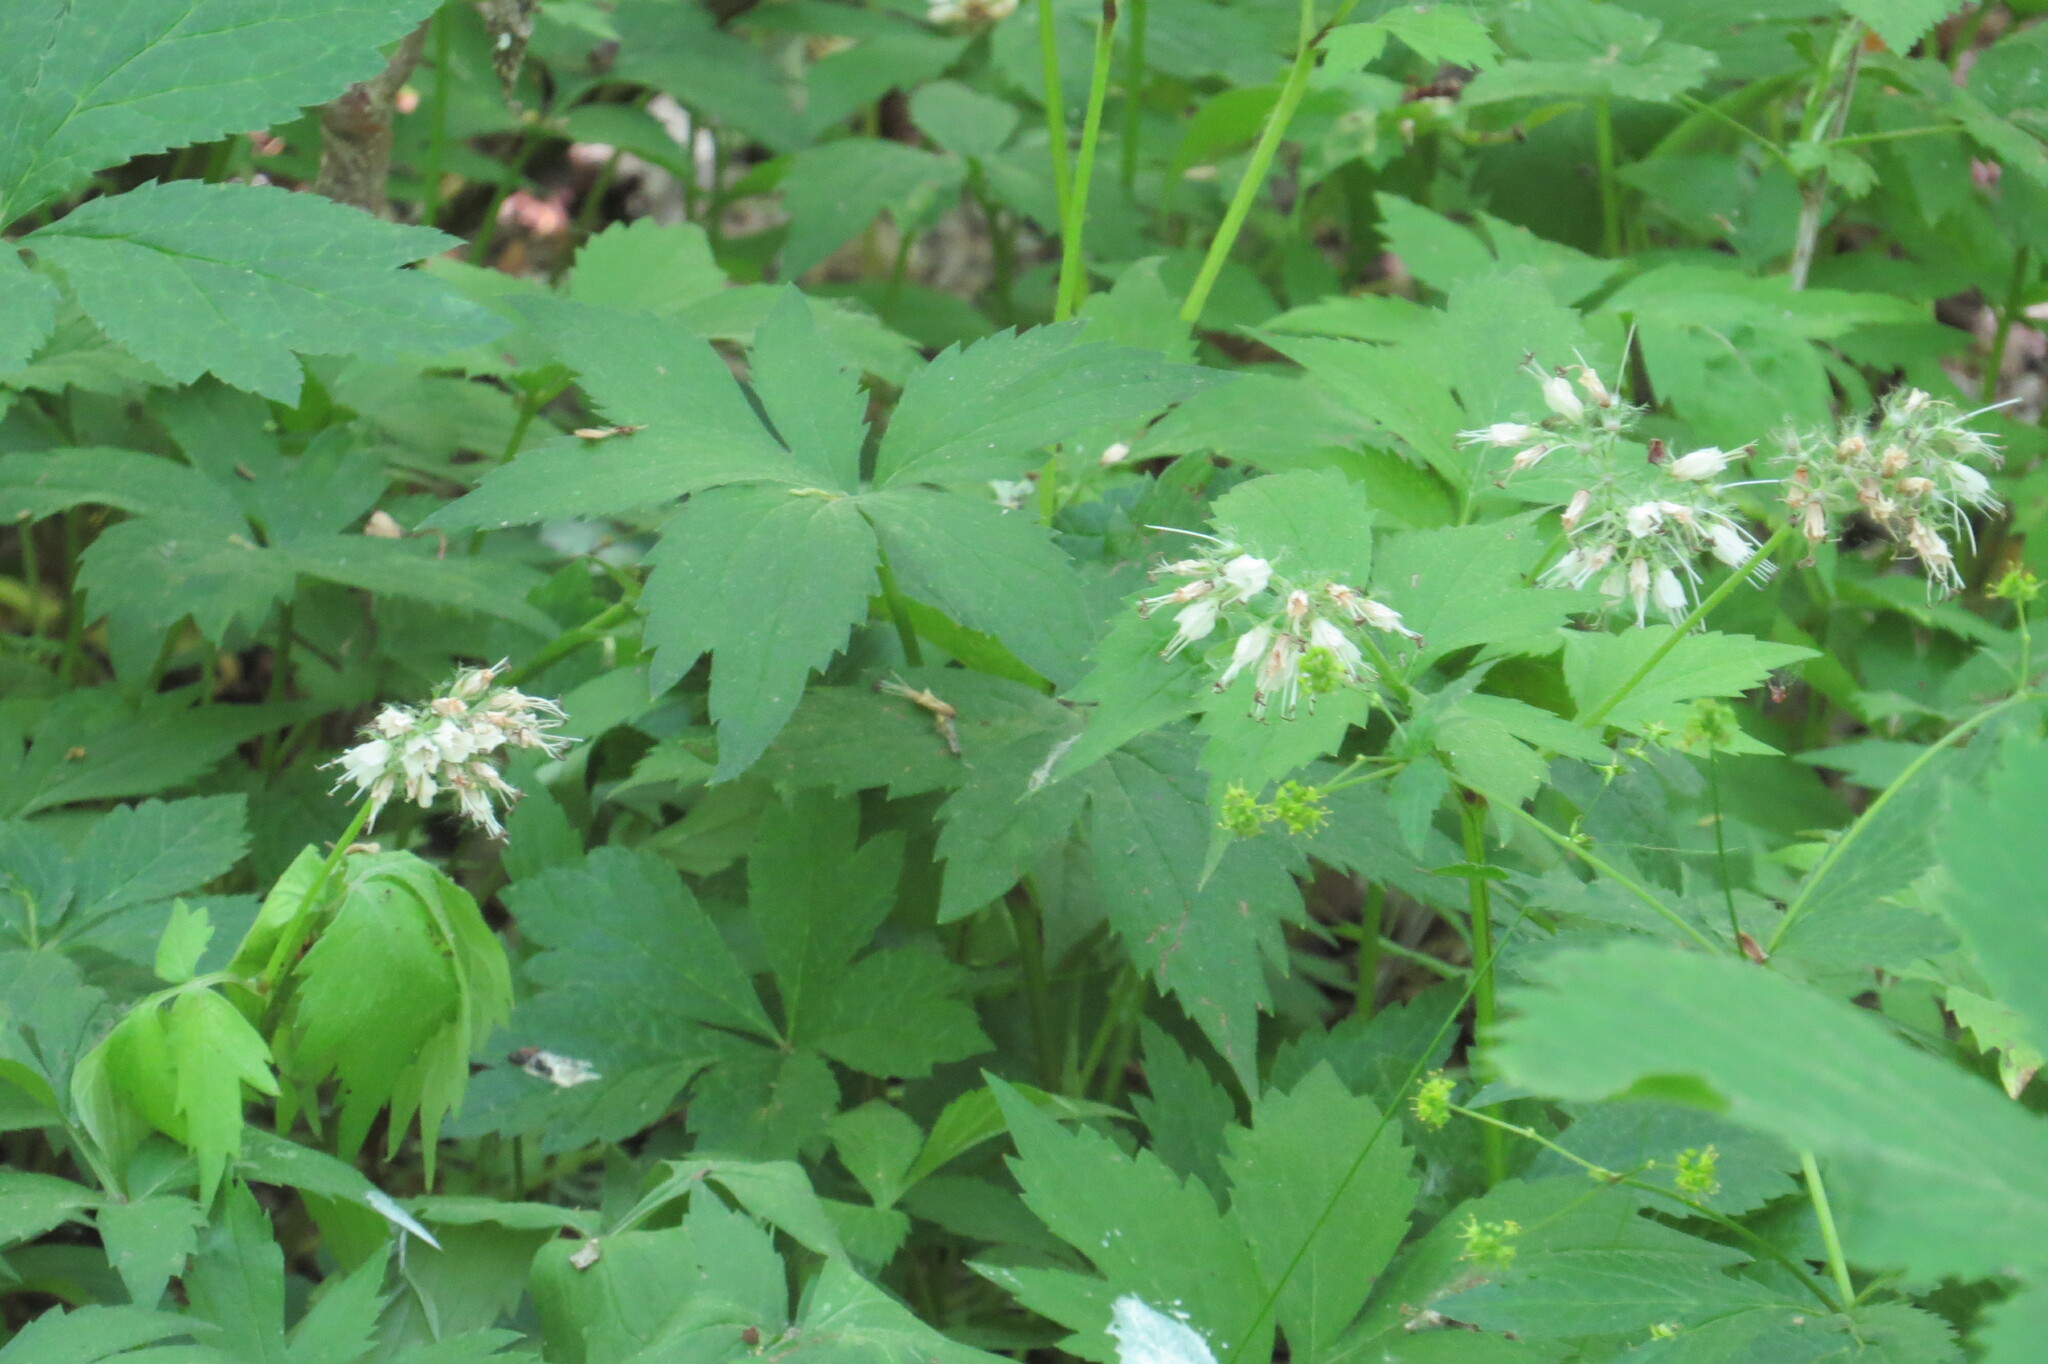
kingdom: Plantae
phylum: Tracheophyta
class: Magnoliopsida
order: Boraginales
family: Hydrophyllaceae
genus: Hydrophyllum
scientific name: Hydrophyllum virginianum
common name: Virginia waterleaf
